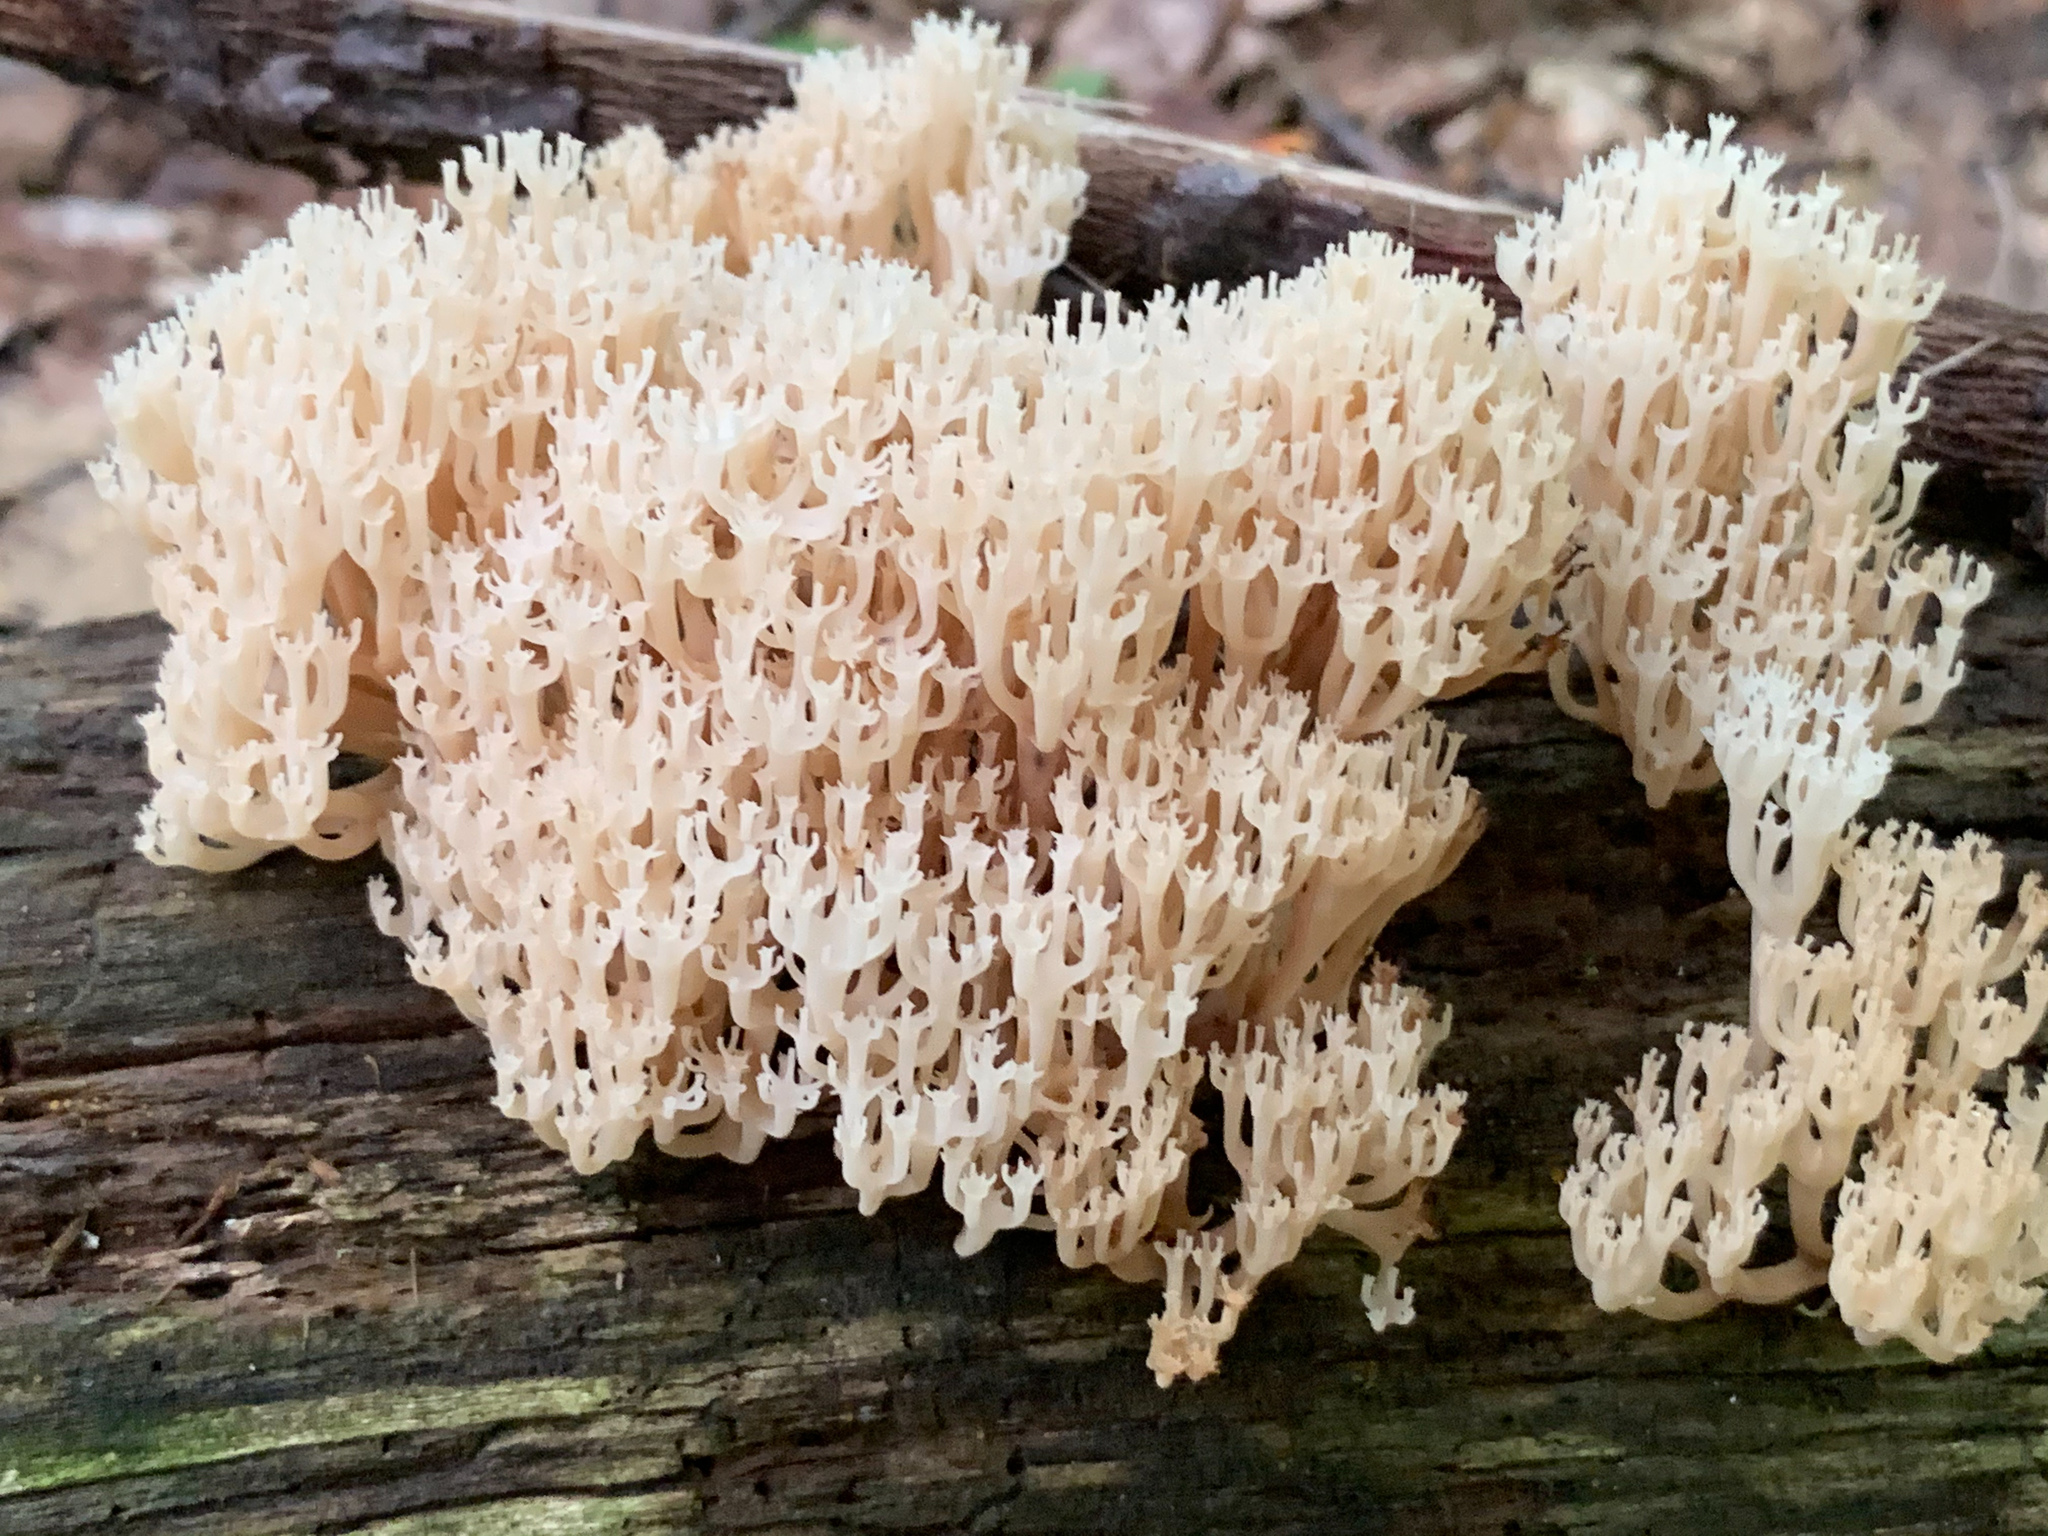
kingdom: Fungi
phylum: Basidiomycota
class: Agaricomycetes
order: Russulales
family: Auriscalpiaceae
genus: Artomyces
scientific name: Artomyces pyxidatus
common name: Crown-tipped coral fungus
